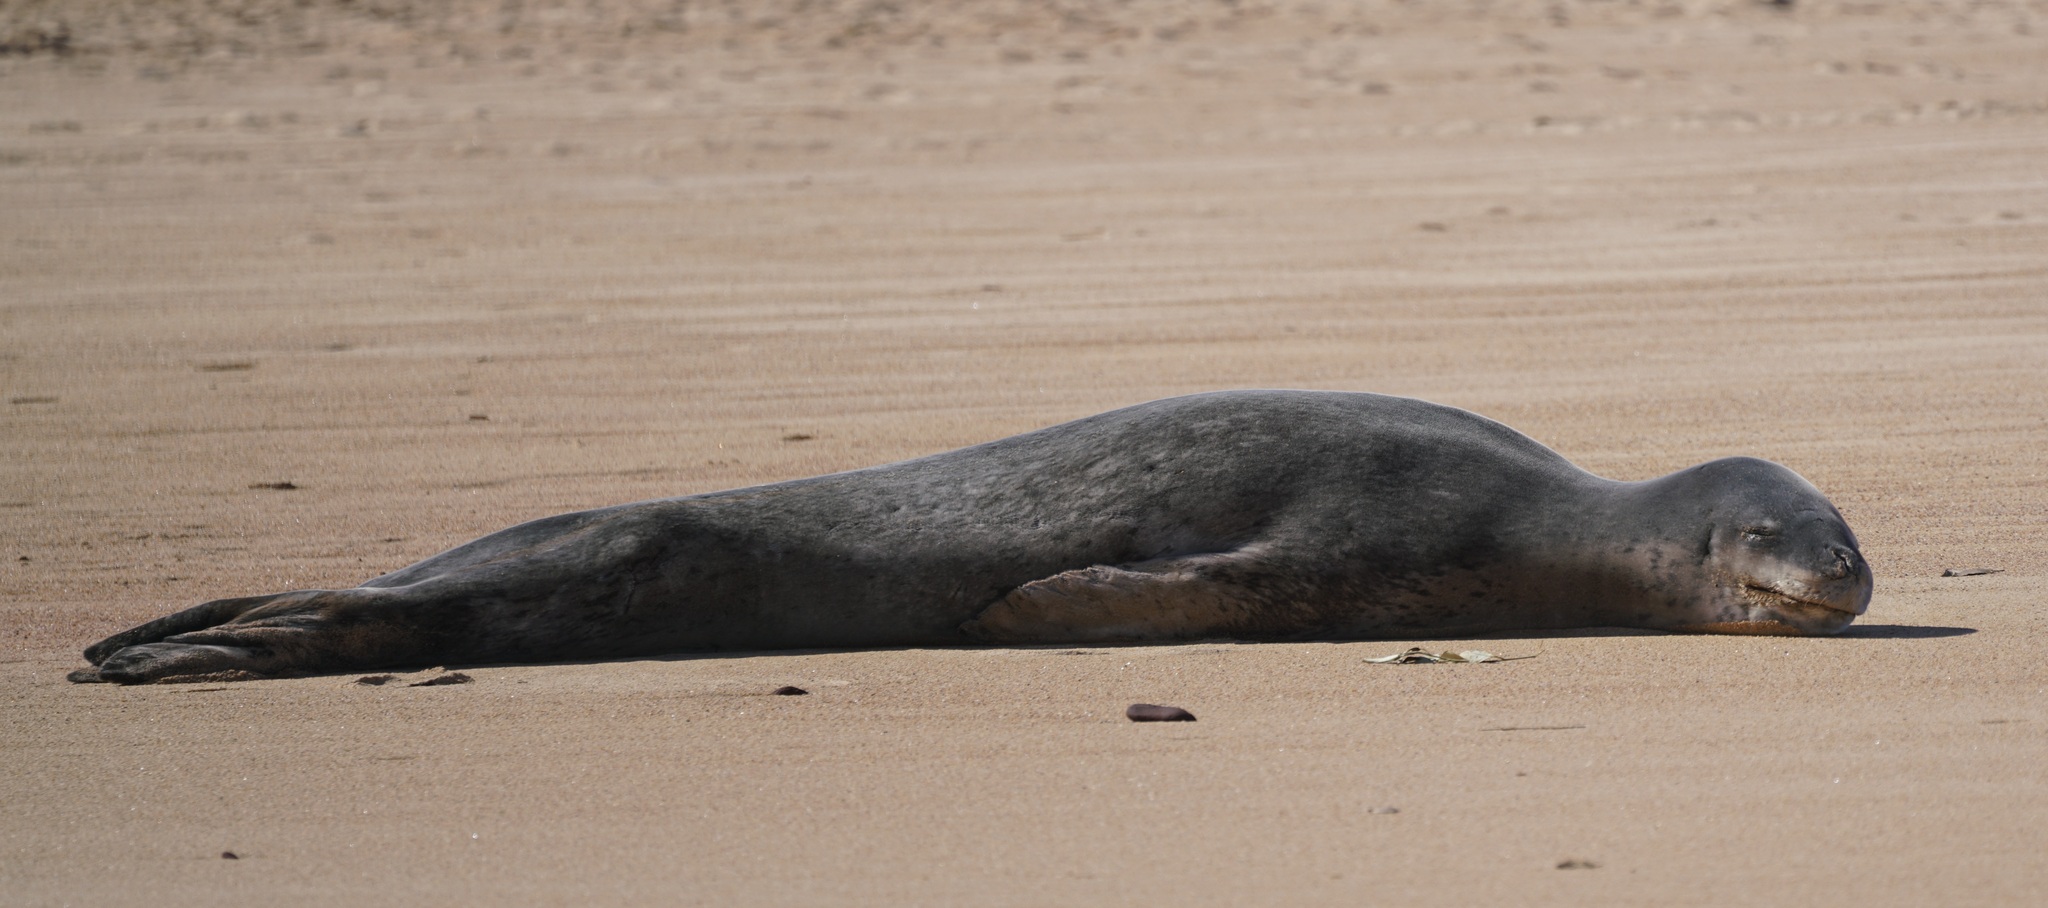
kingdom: Animalia
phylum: Chordata
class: Mammalia
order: Carnivora
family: Phocidae
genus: Hydrurga
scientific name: Hydrurga leptonyx
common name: Leopard seal
